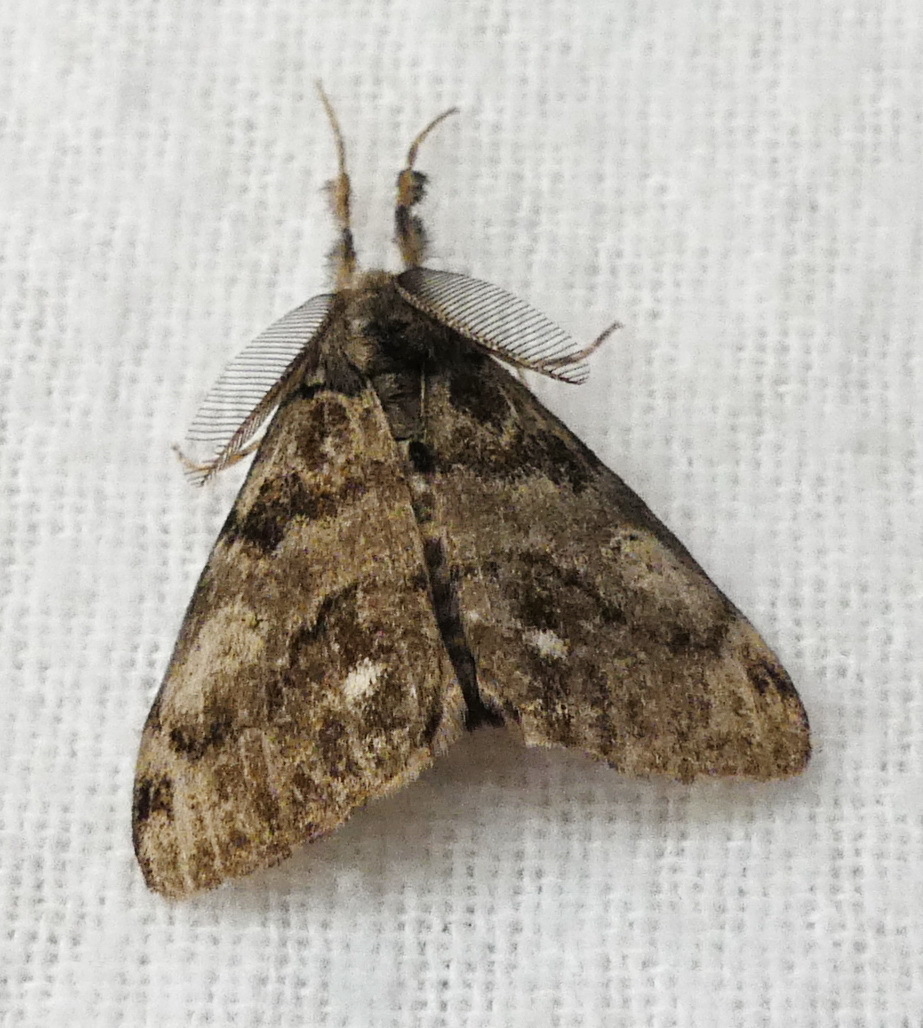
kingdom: Animalia
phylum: Arthropoda
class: Insecta
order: Lepidoptera
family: Erebidae
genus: Orgyia
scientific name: Orgyia leucostigma
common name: White-marked tussock moth
